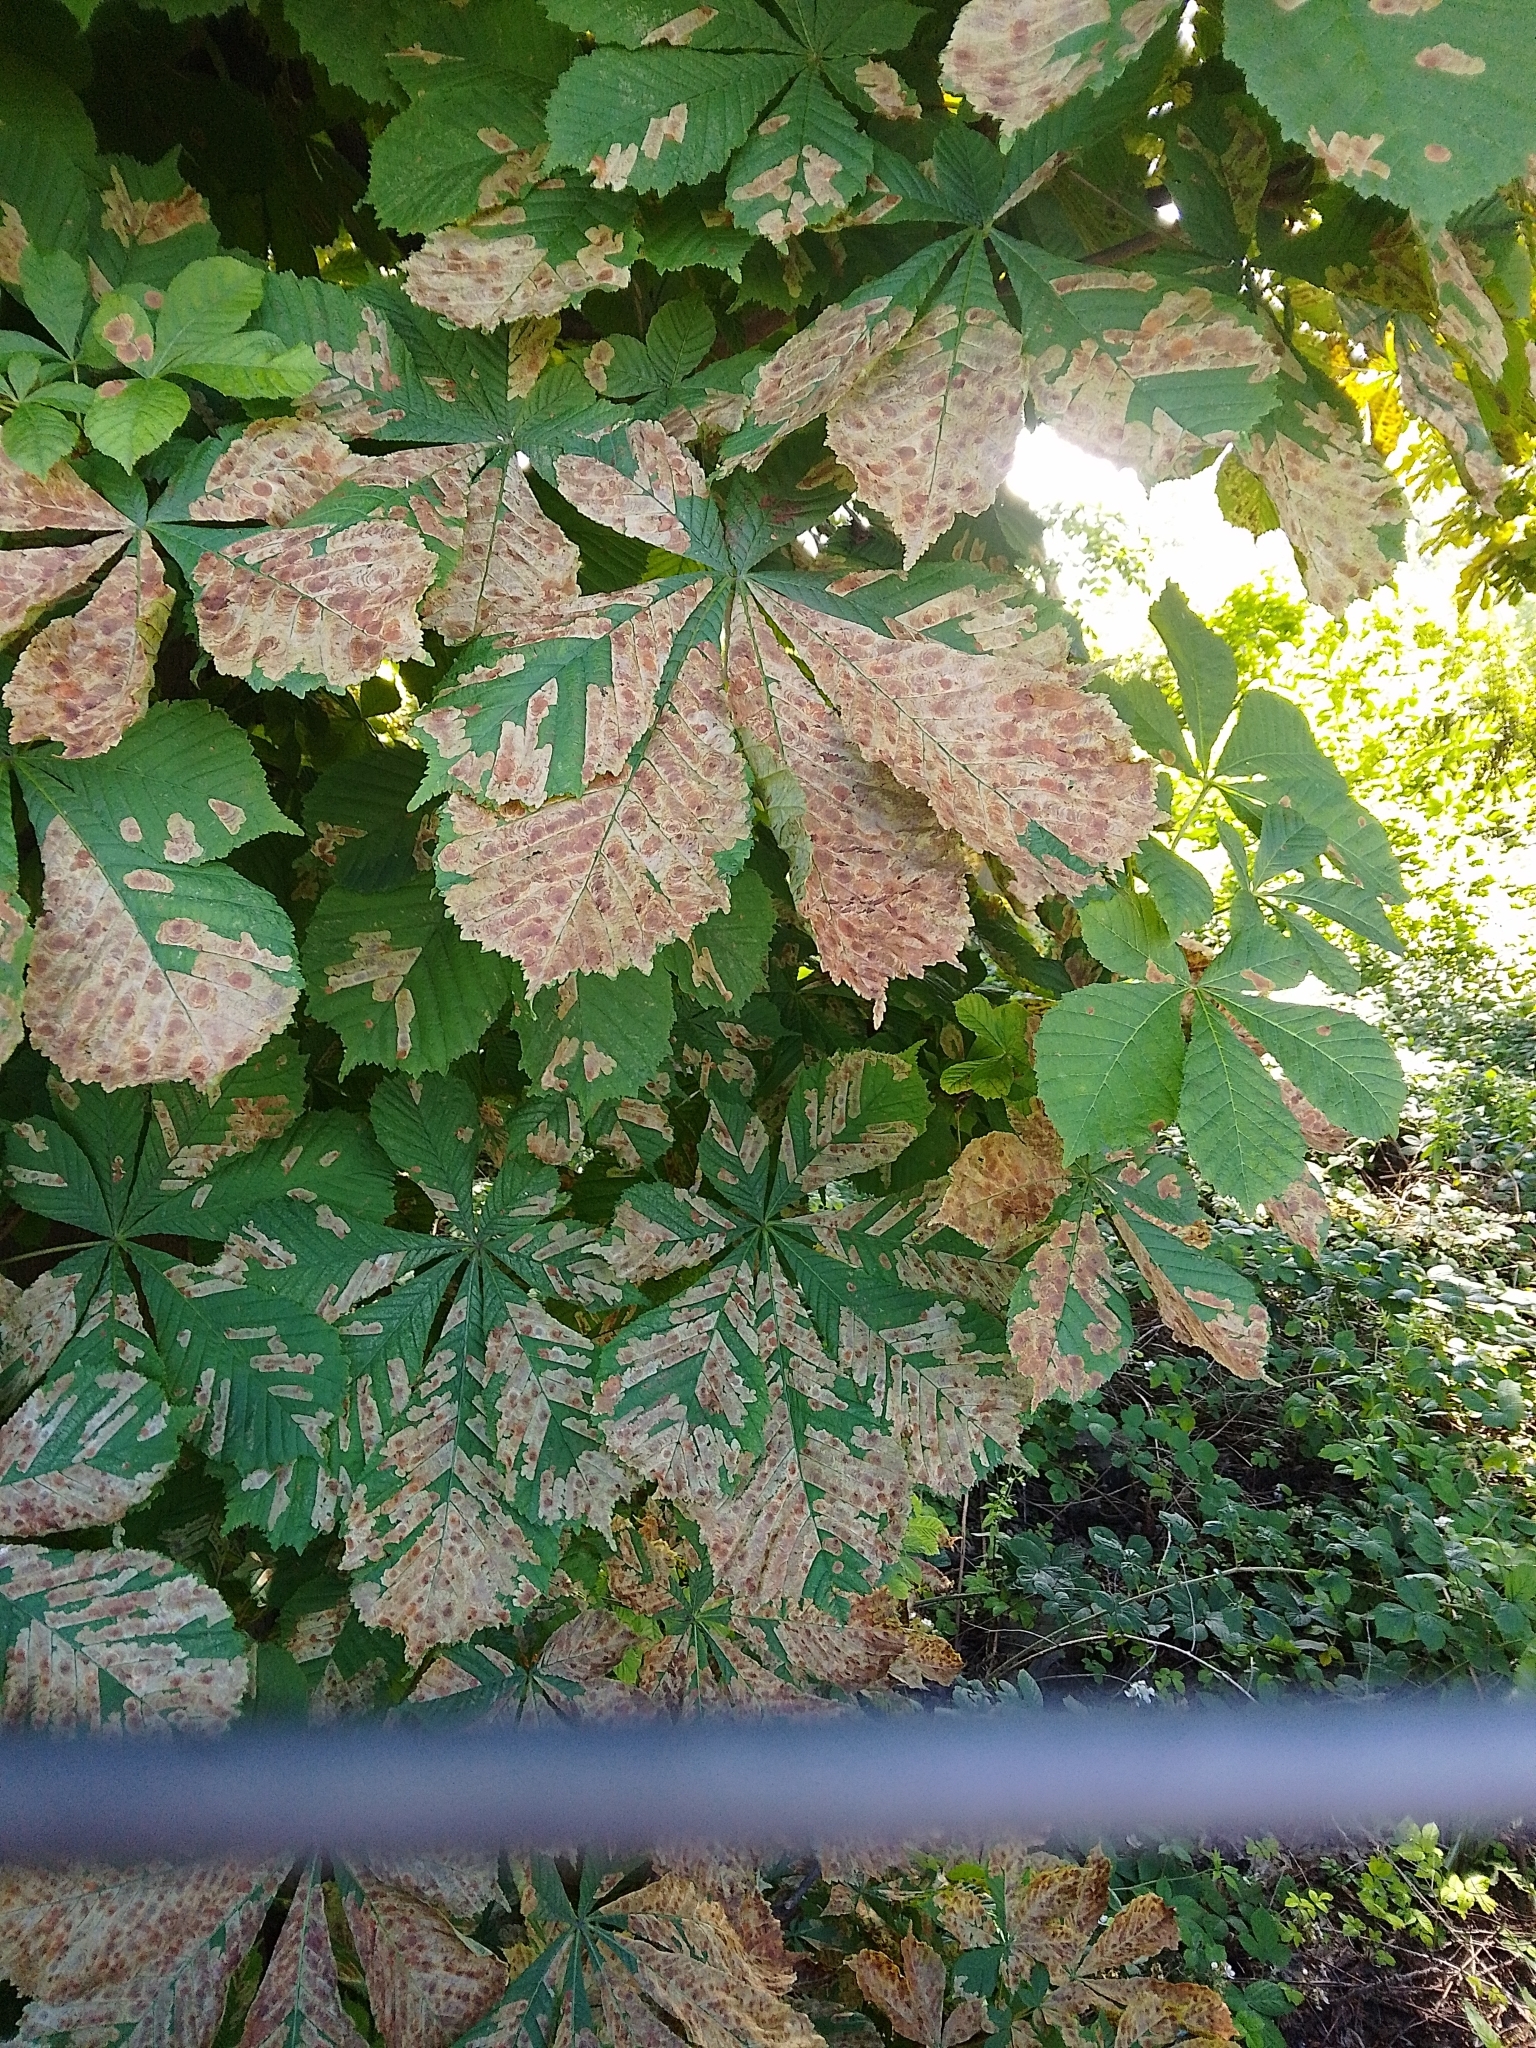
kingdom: Animalia
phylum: Arthropoda
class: Insecta
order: Lepidoptera
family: Gracillariidae
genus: Cameraria
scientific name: Cameraria ohridella
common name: Horse-chestnut leaf-miner
